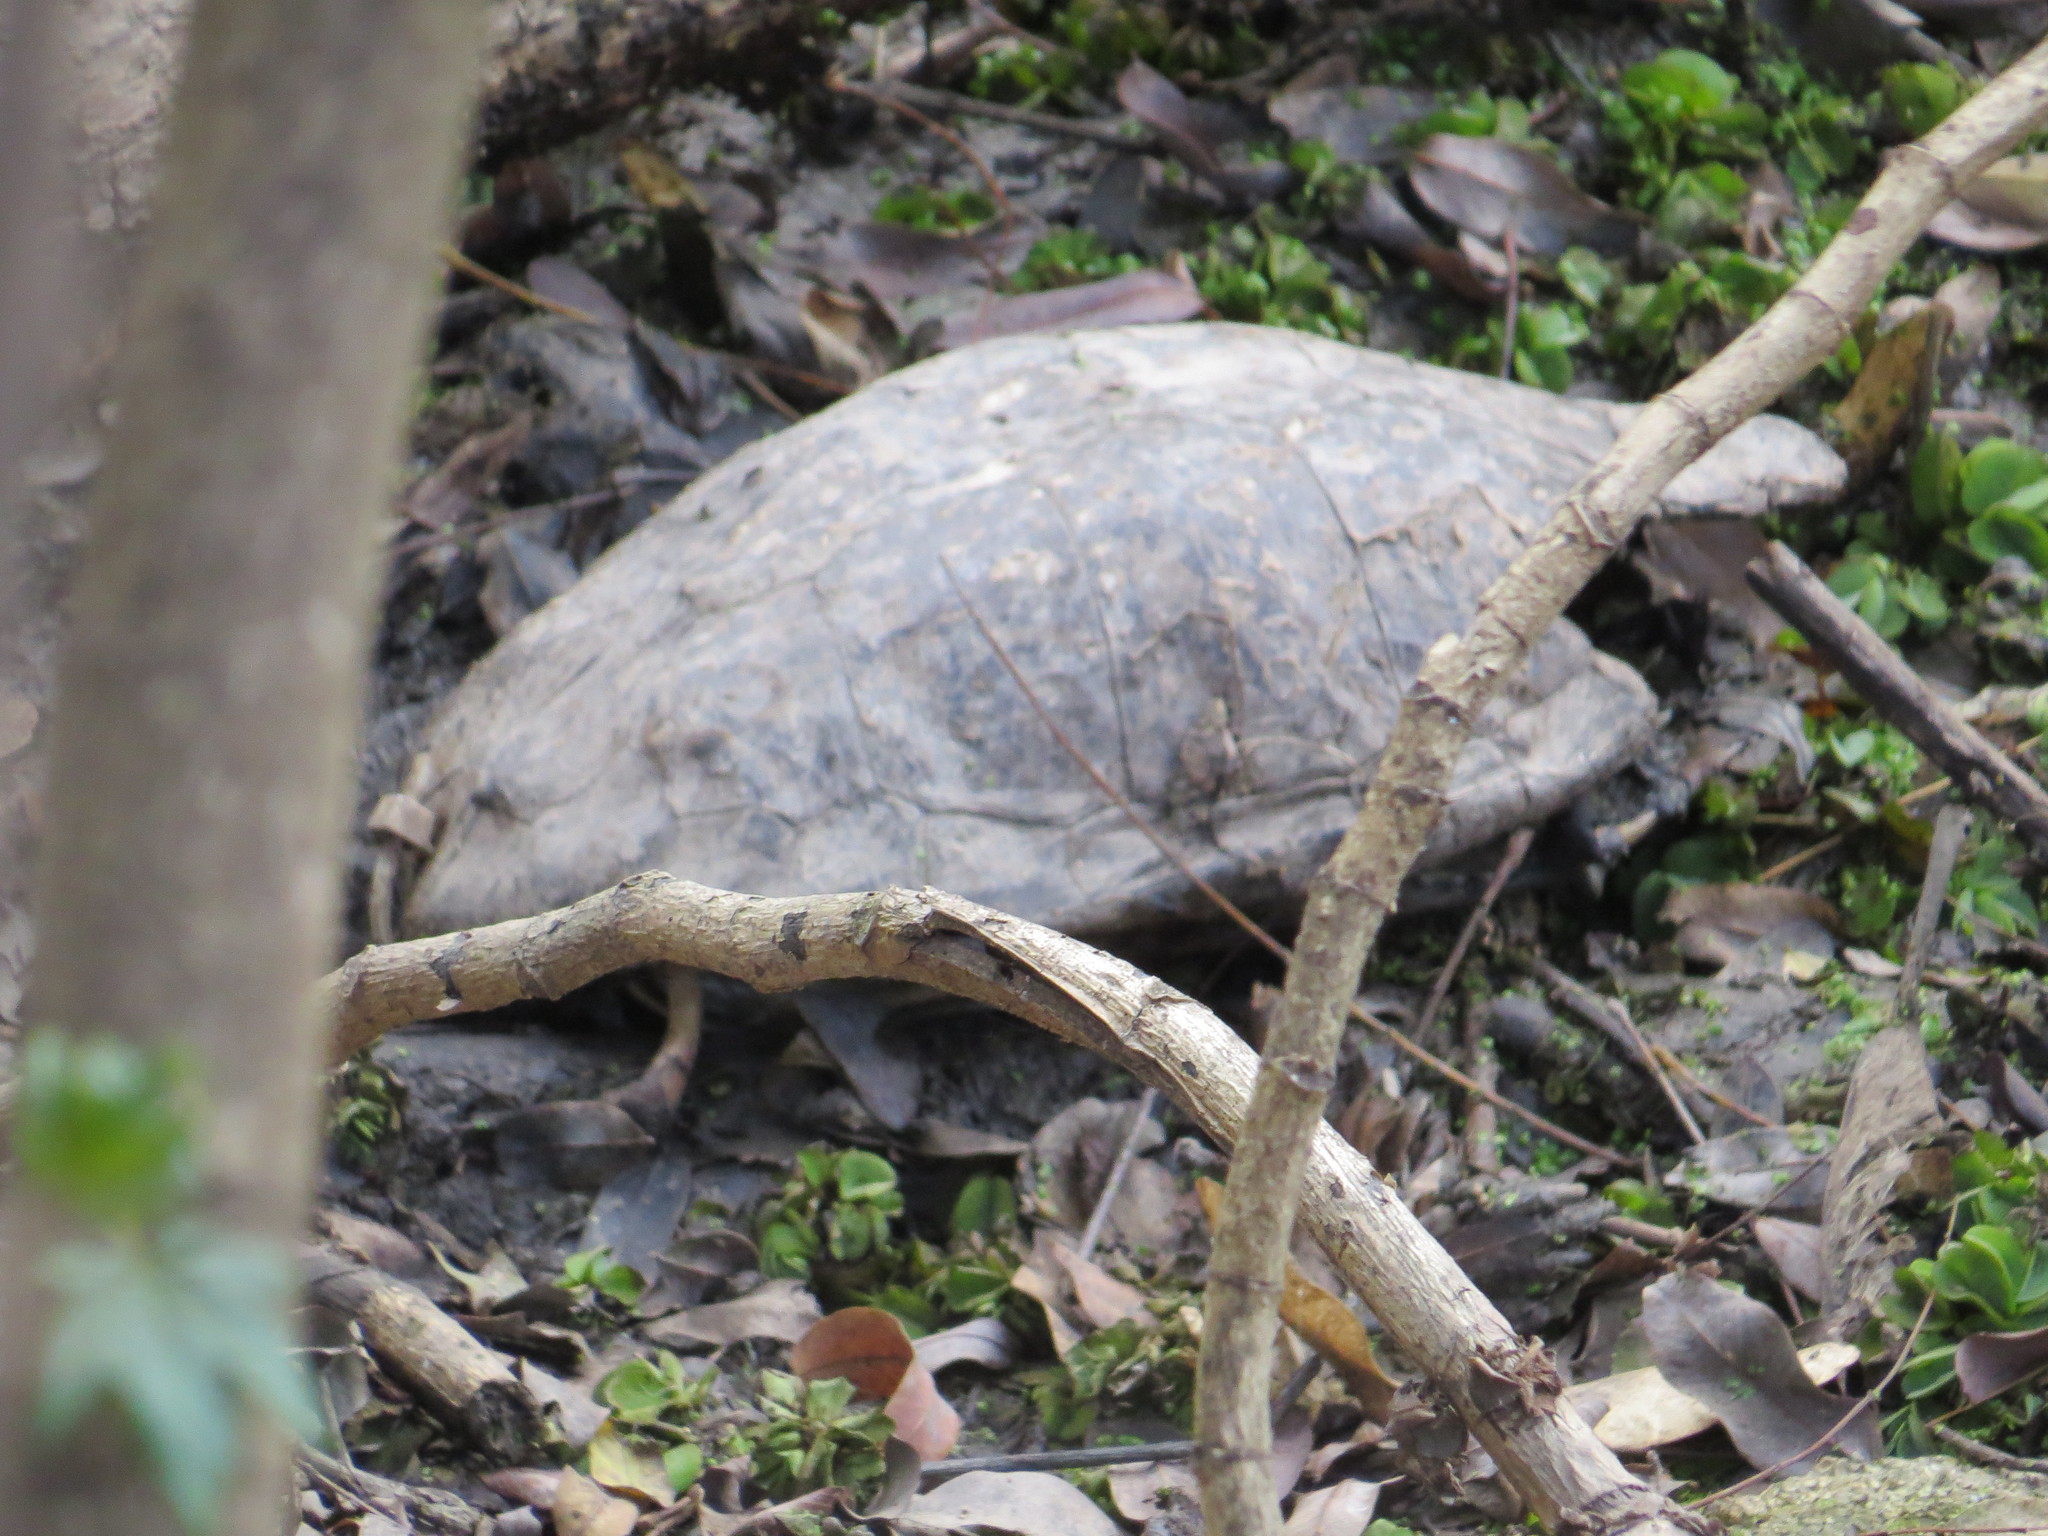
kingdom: Animalia
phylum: Chordata
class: Testudines
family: Chelidae
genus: Hydromedusa
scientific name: Hydromedusa tectifera
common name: Argentine snake-necked turtle
